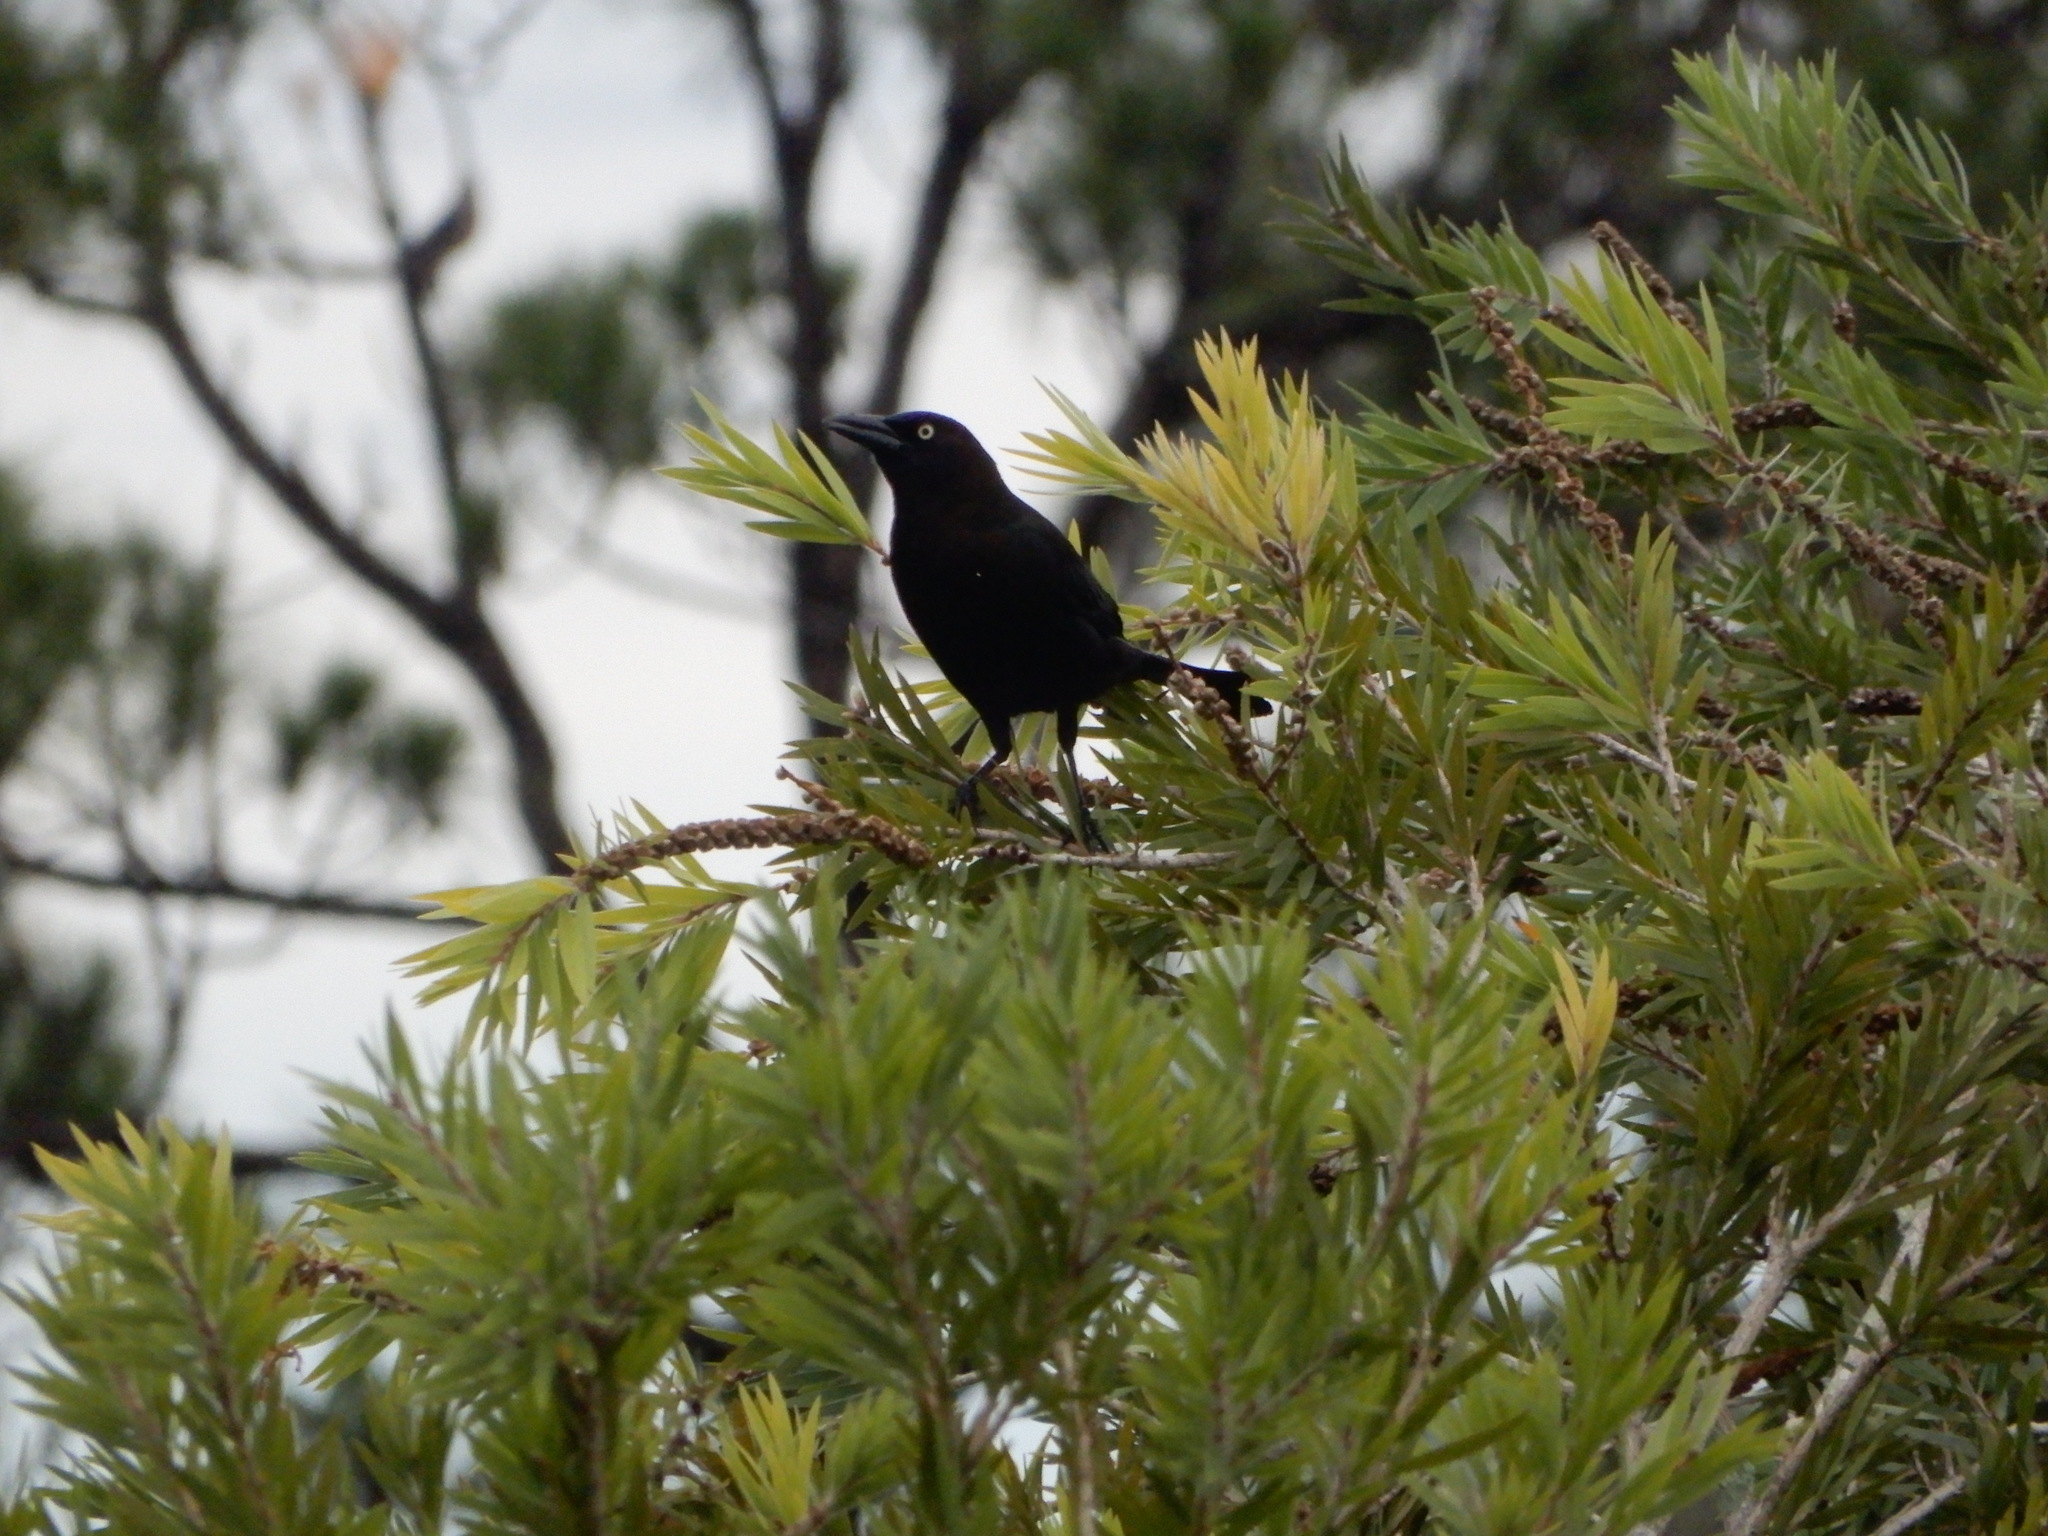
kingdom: Animalia
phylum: Chordata
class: Aves
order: Passeriformes
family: Icteridae
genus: Quiscalus
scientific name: Quiscalus quiscula
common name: Common grackle
